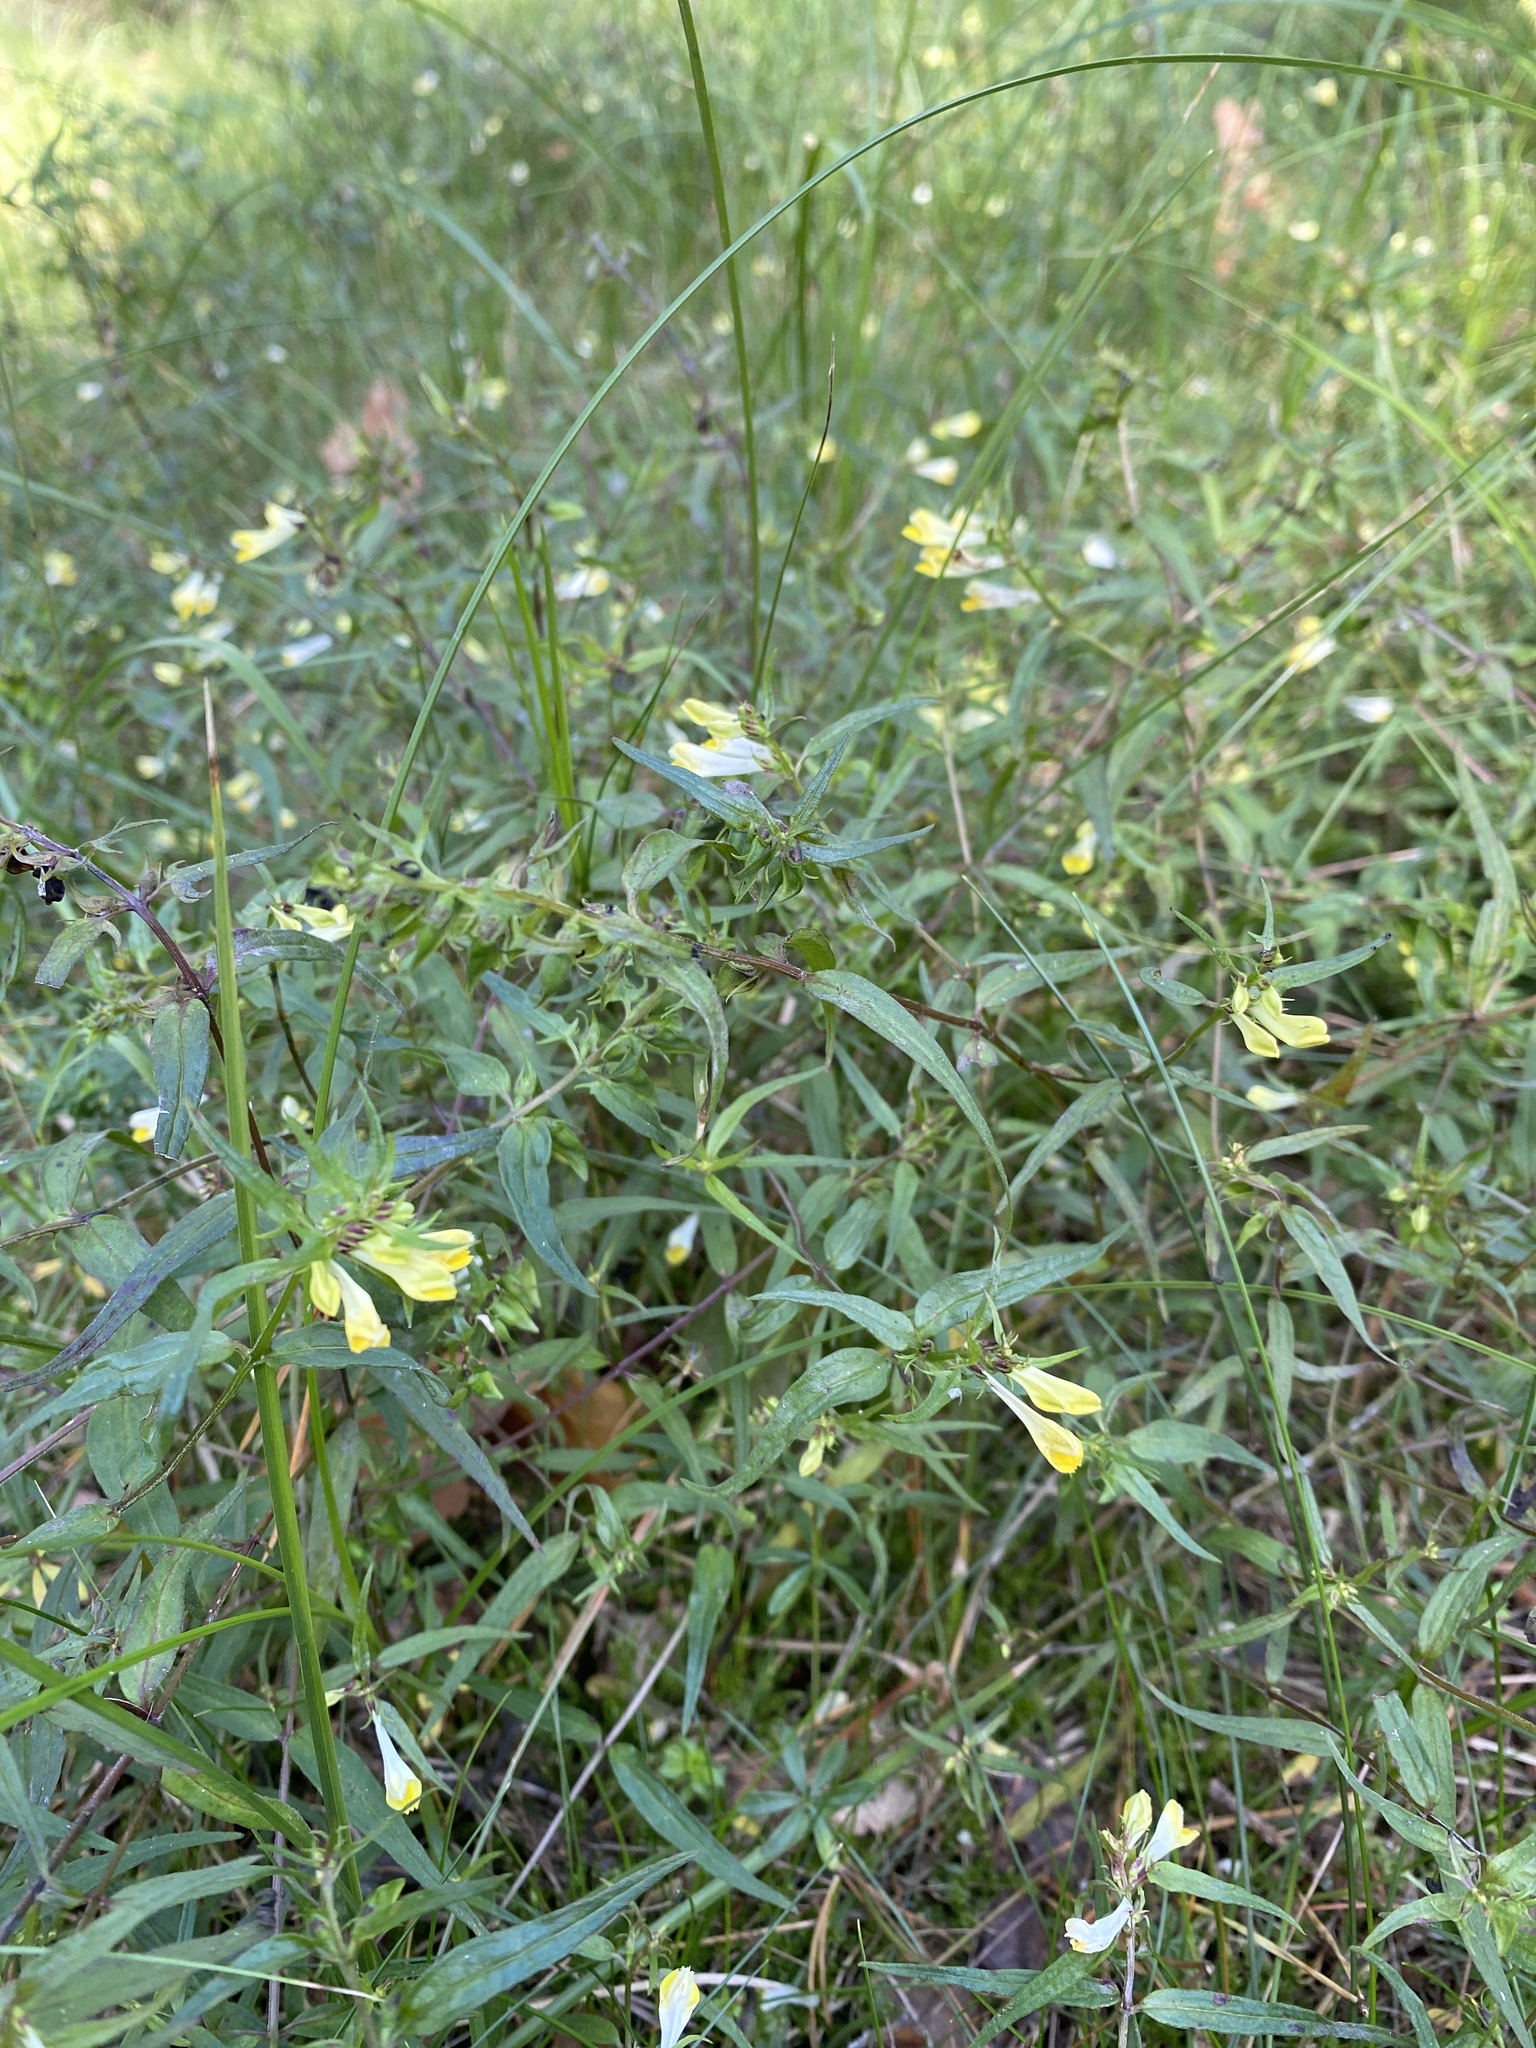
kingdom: Plantae
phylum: Tracheophyta
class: Magnoliopsida
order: Lamiales
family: Orobanchaceae
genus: Melampyrum
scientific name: Melampyrum pratense
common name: Common cow-wheat
